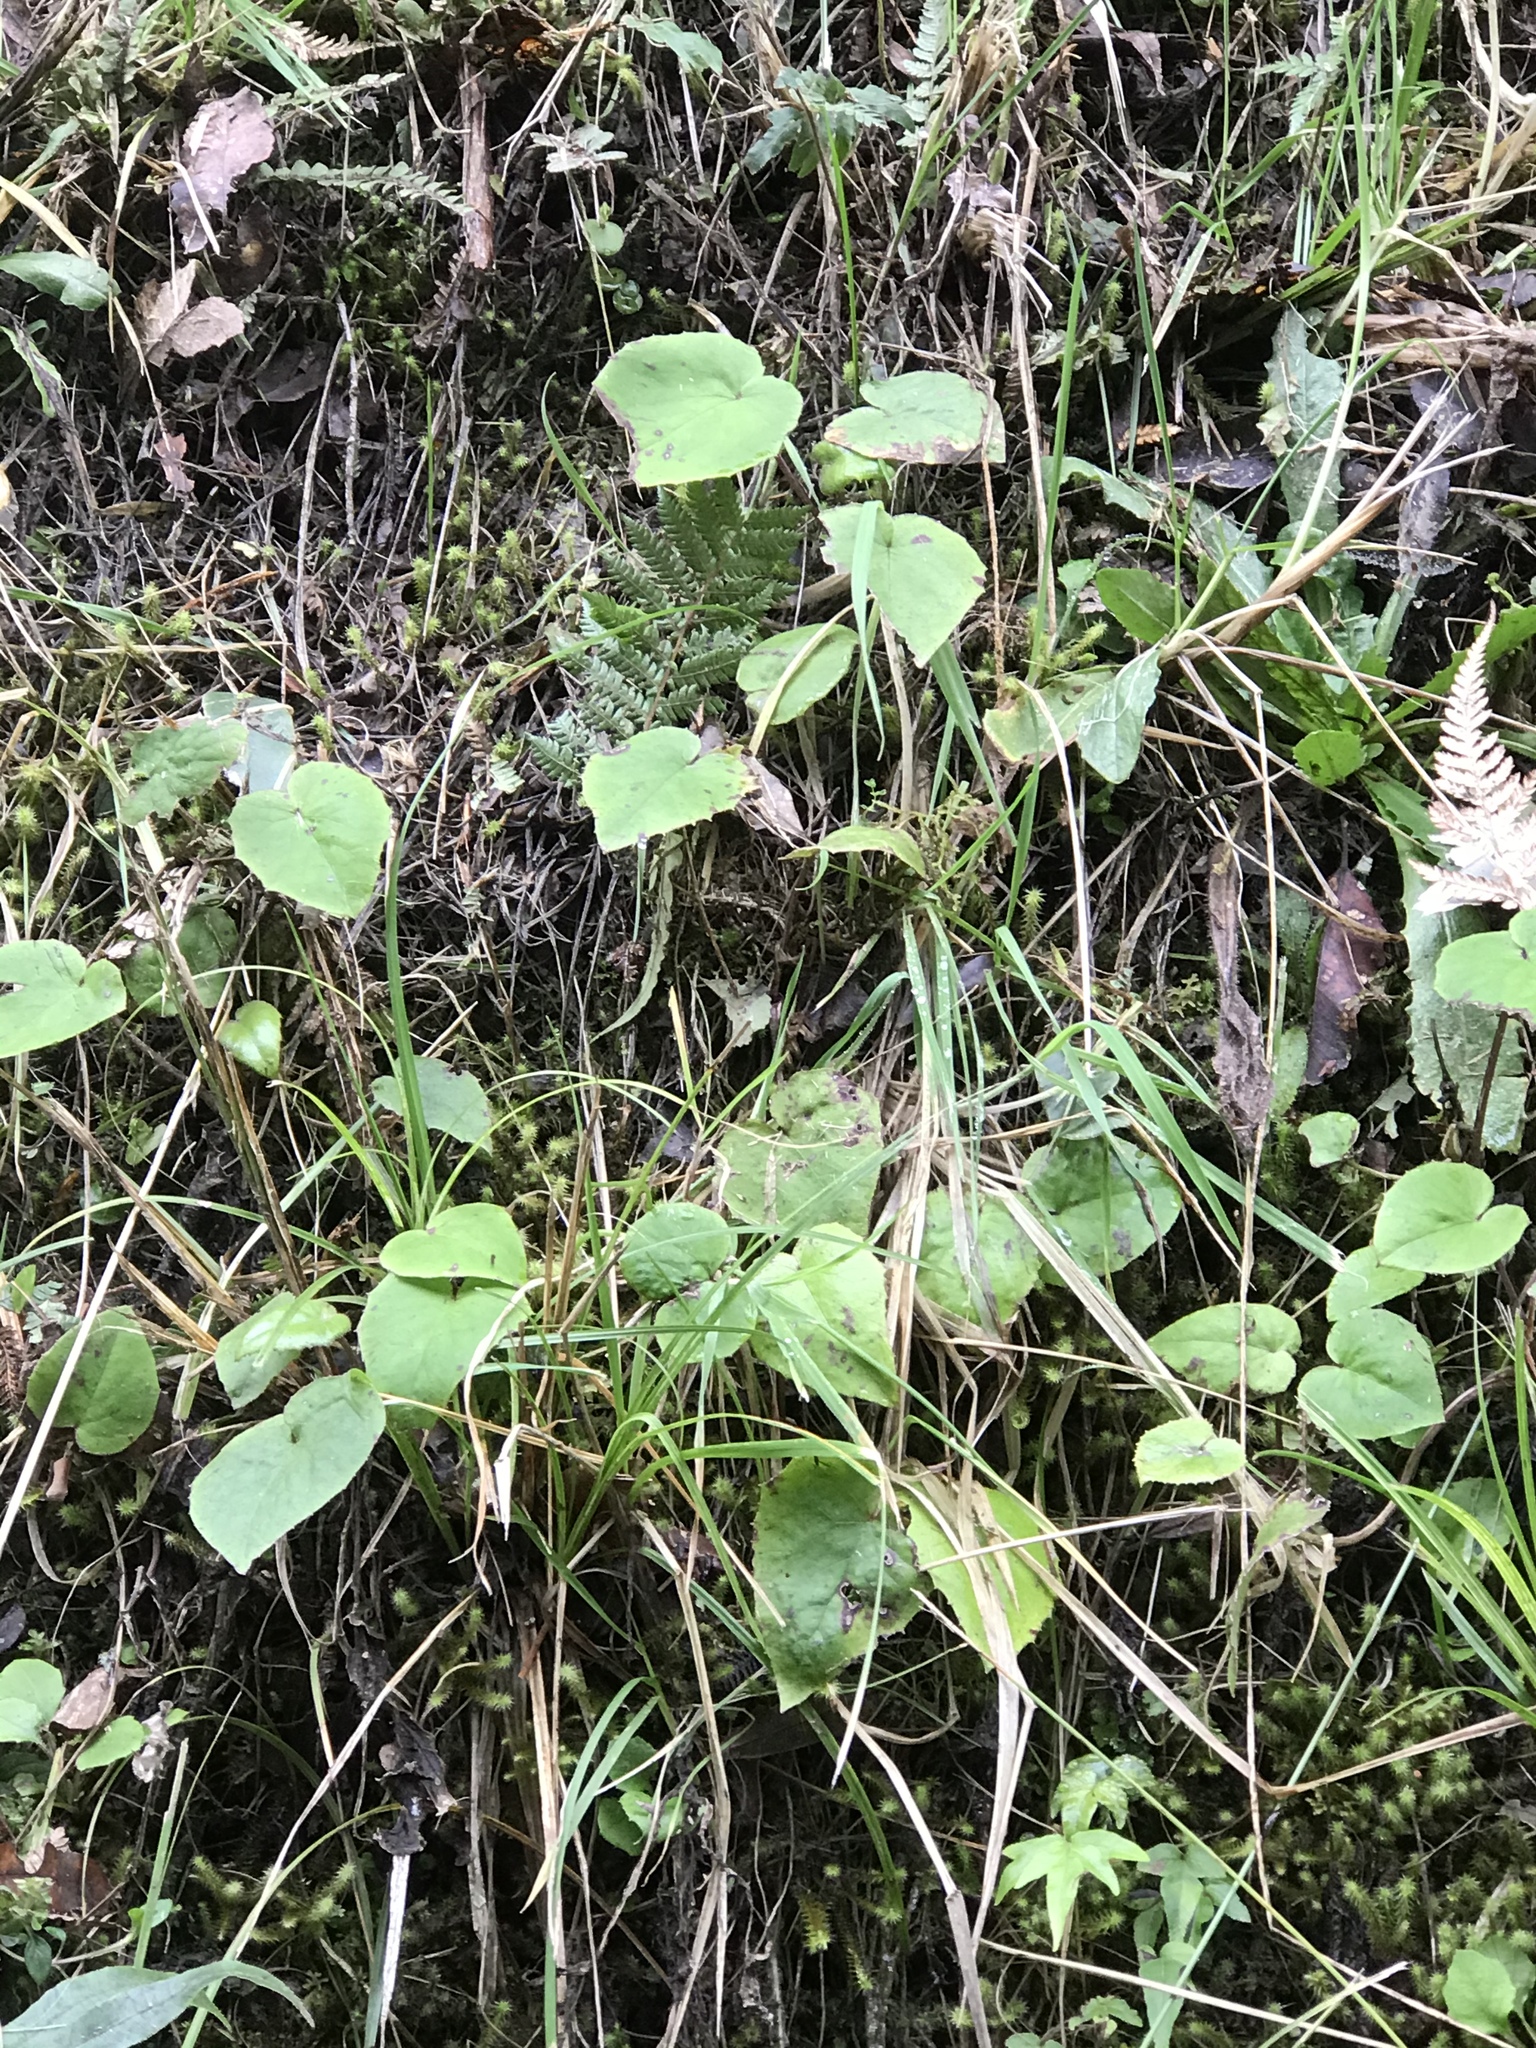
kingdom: Plantae
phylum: Tracheophyta
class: Magnoliopsida
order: Asterales
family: Asteraceae
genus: Brachyglottis
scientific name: Brachyglottis turneri
